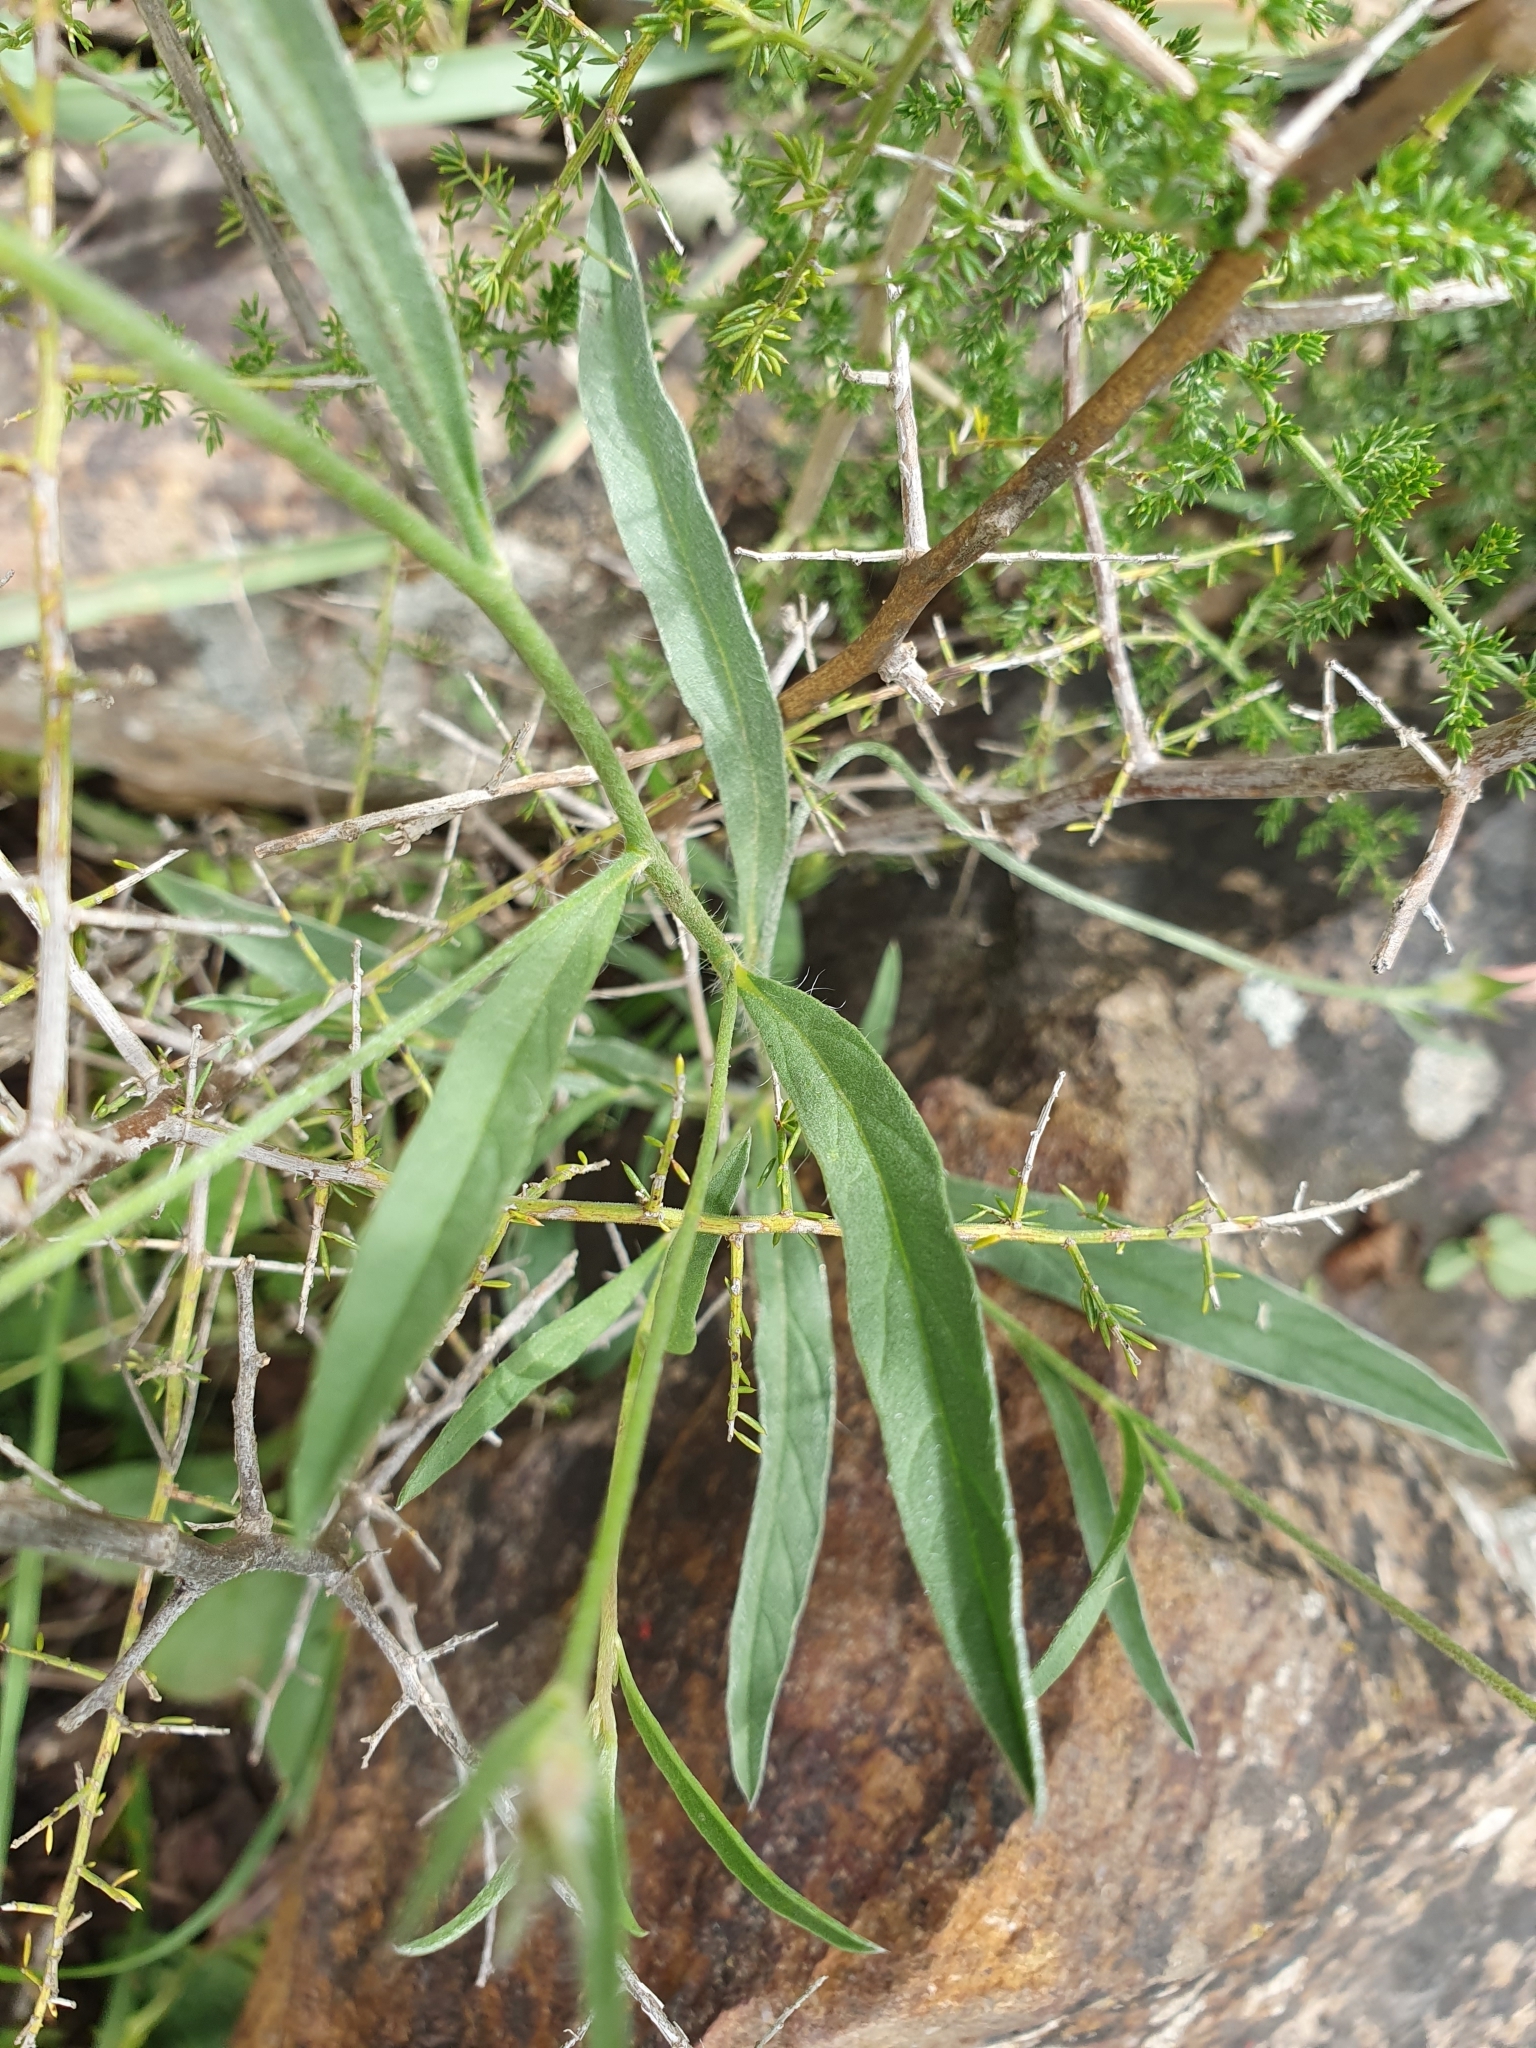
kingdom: Plantae
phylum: Tracheophyta
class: Magnoliopsida
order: Solanales
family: Convolvulaceae
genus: Convolvulus
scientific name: Convolvulus cantabrica
